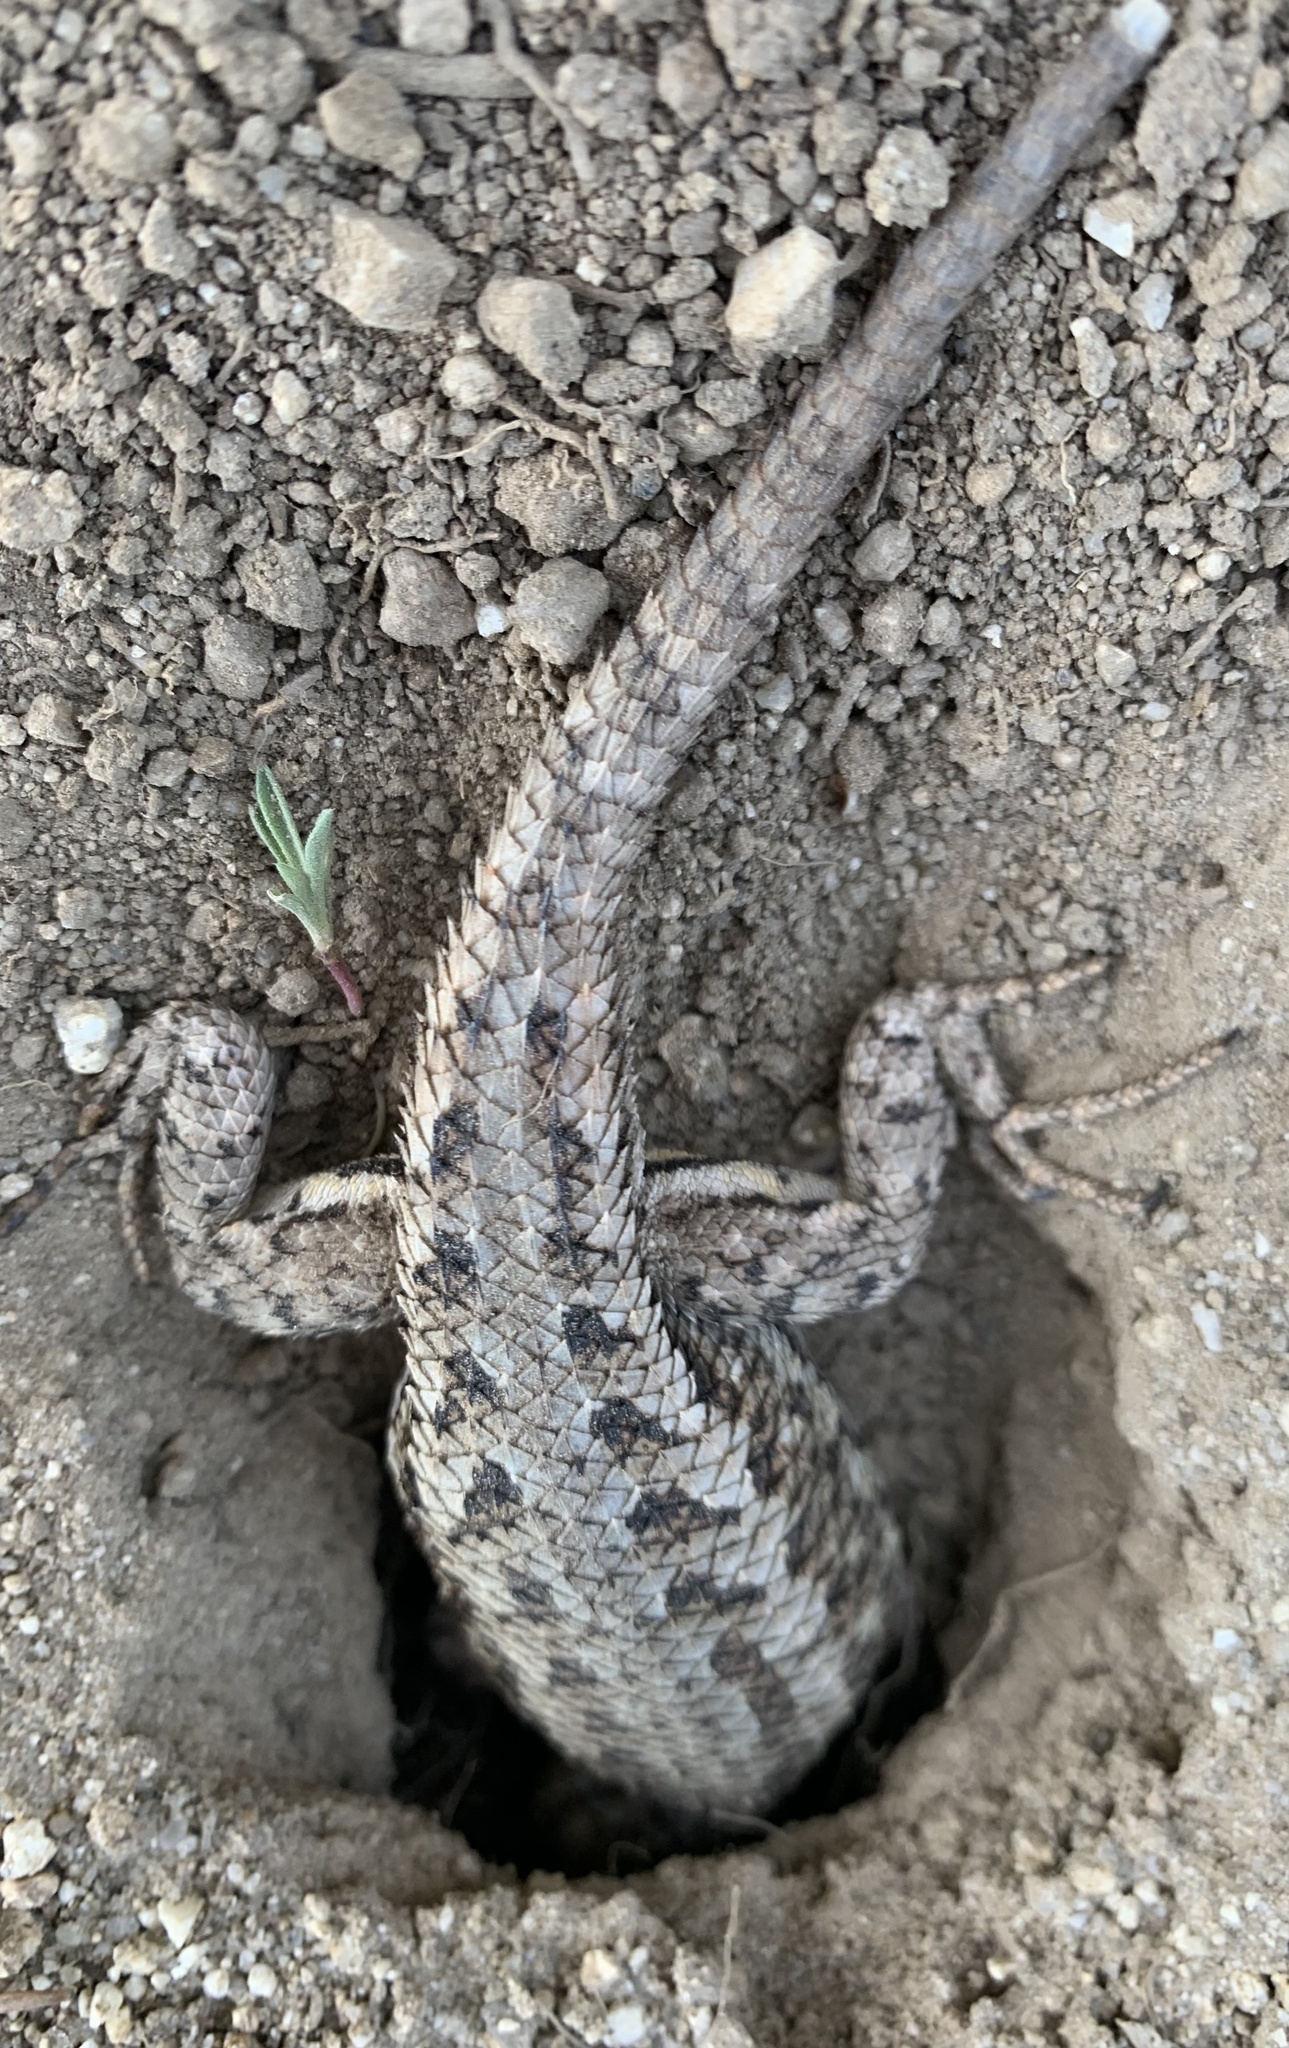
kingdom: Animalia
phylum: Chordata
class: Squamata
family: Phrynosomatidae
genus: Sceloporus
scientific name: Sceloporus occidentalis
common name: Western fence lizard
